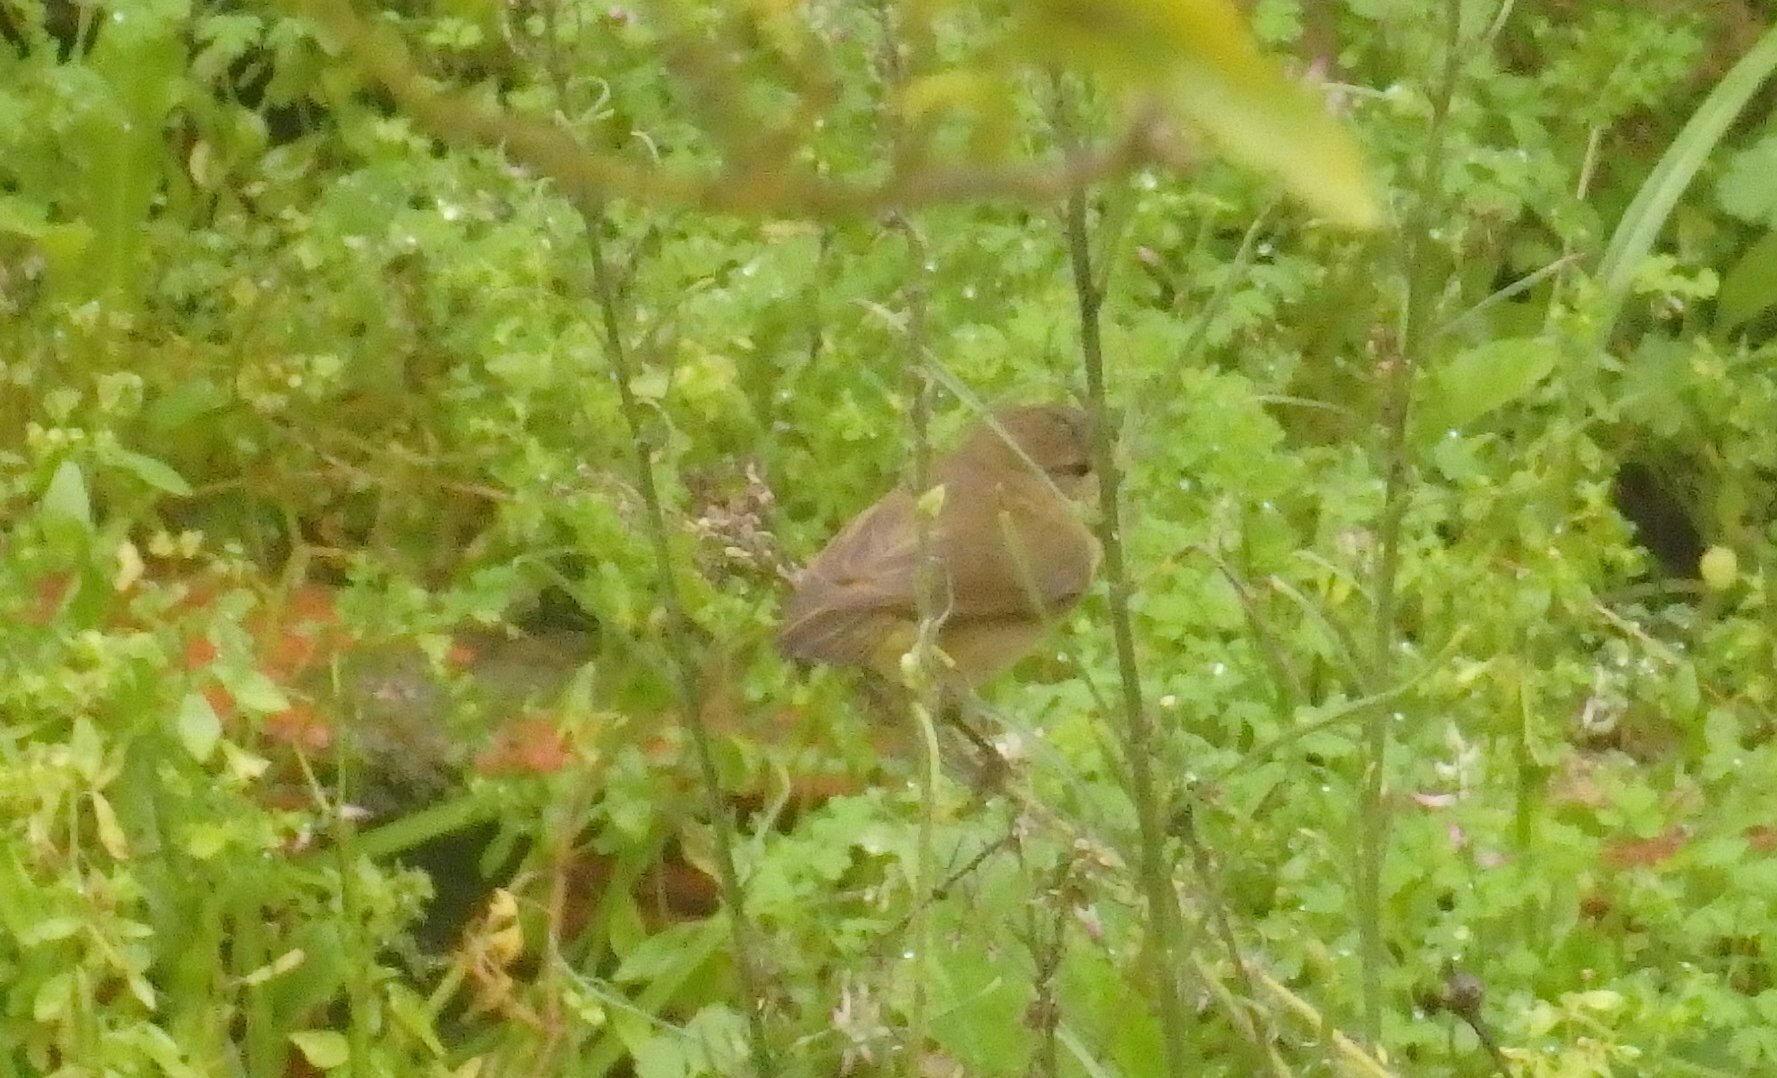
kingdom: Animalia
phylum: Chordata
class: Aves
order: Passeriformes
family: Phylloscopidae
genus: Phylloscopus
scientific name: Phylloscopus collybita
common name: Common chiffchaff
